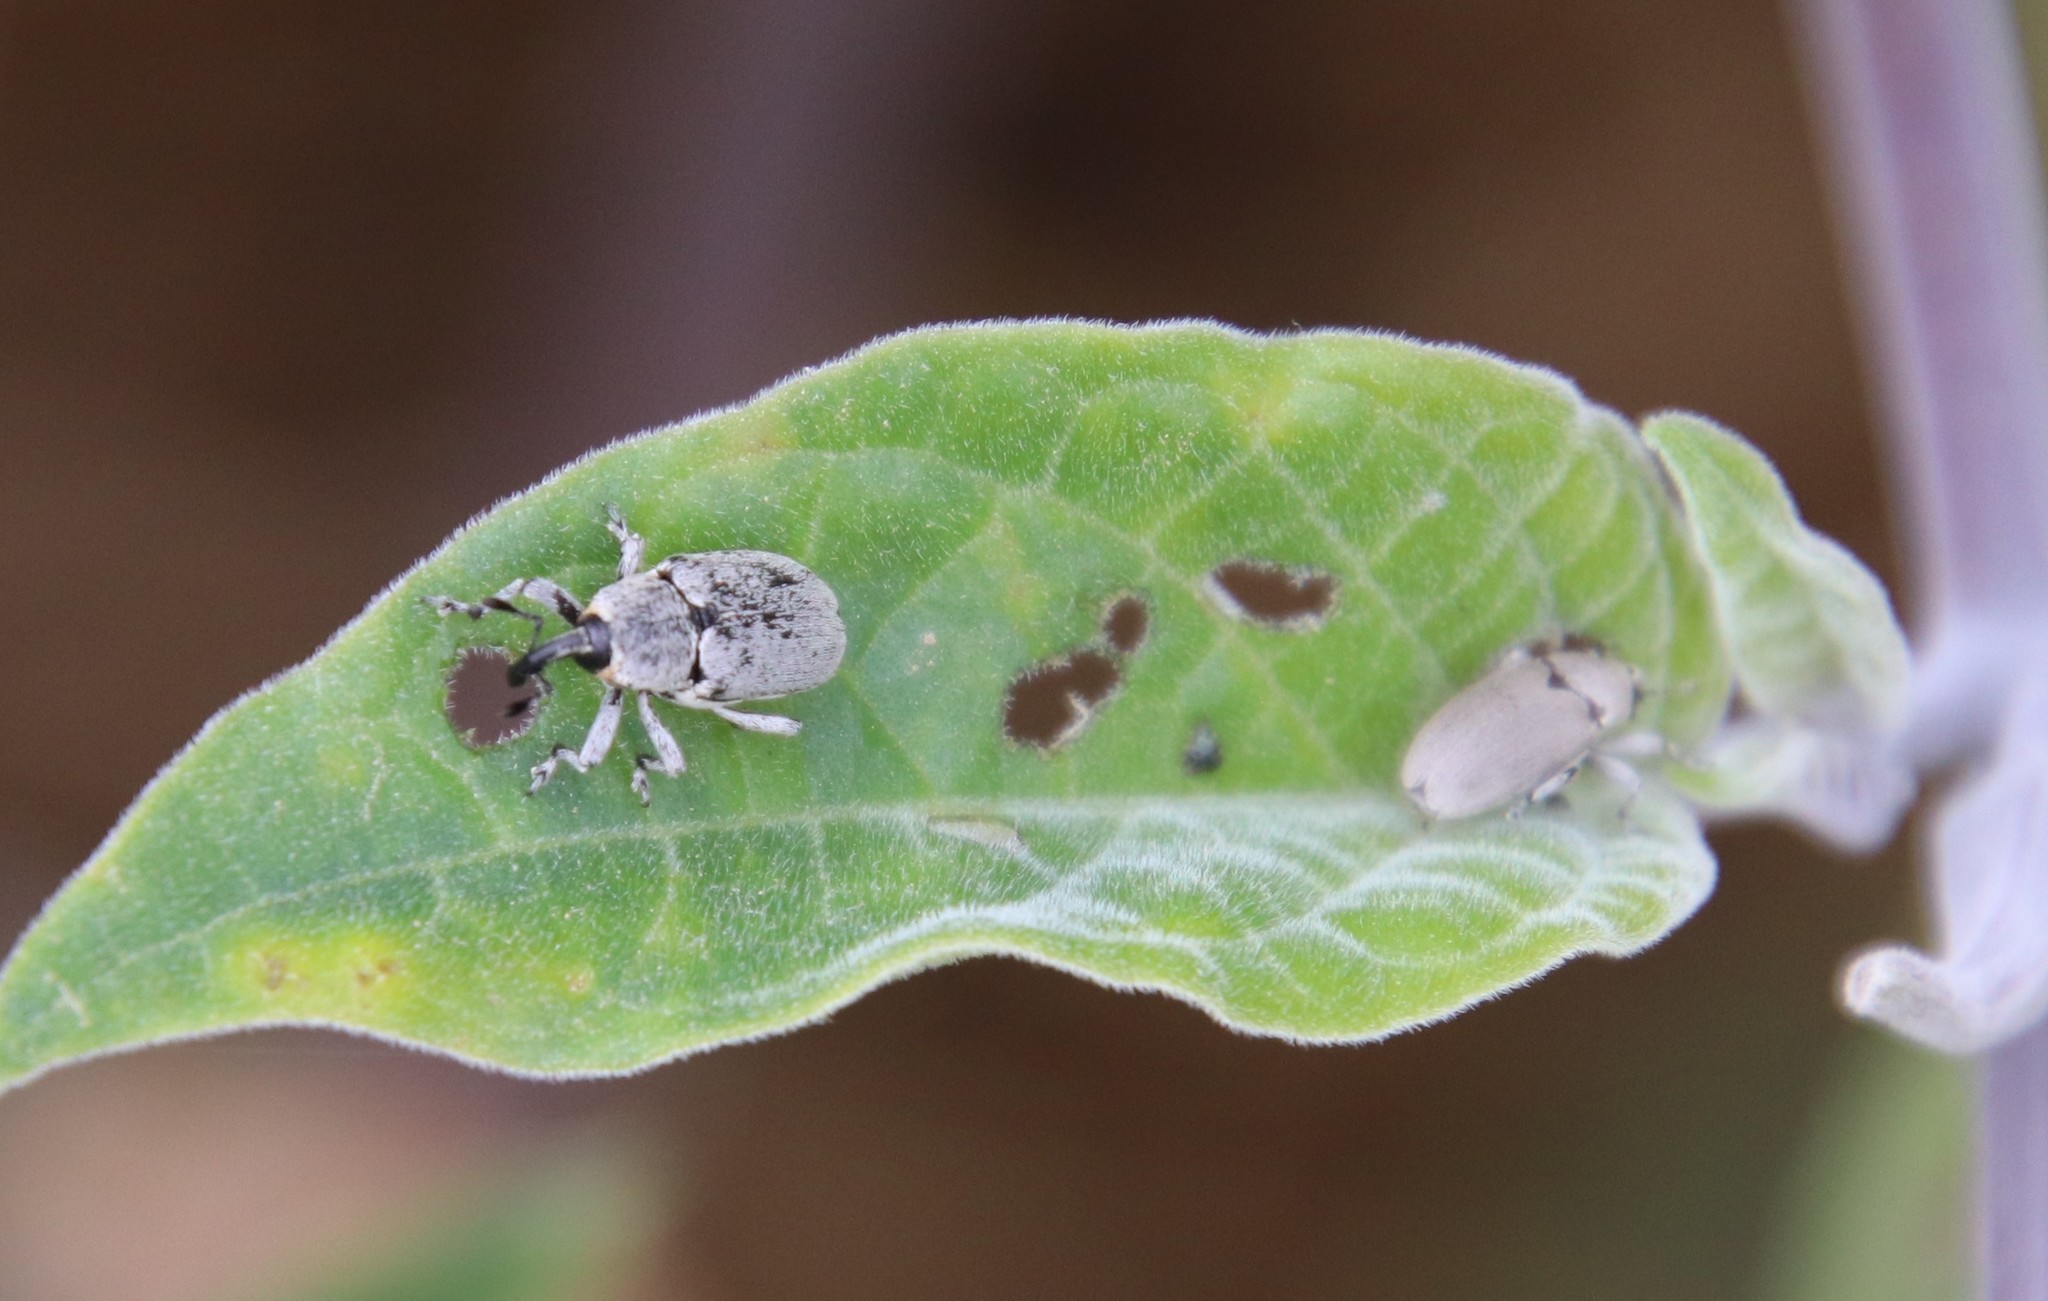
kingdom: Animalia
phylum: Arthropoda
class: Insecta
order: Coleoptera
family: Curculionidae
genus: Trichobaris
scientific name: Trichobaris mucorea
